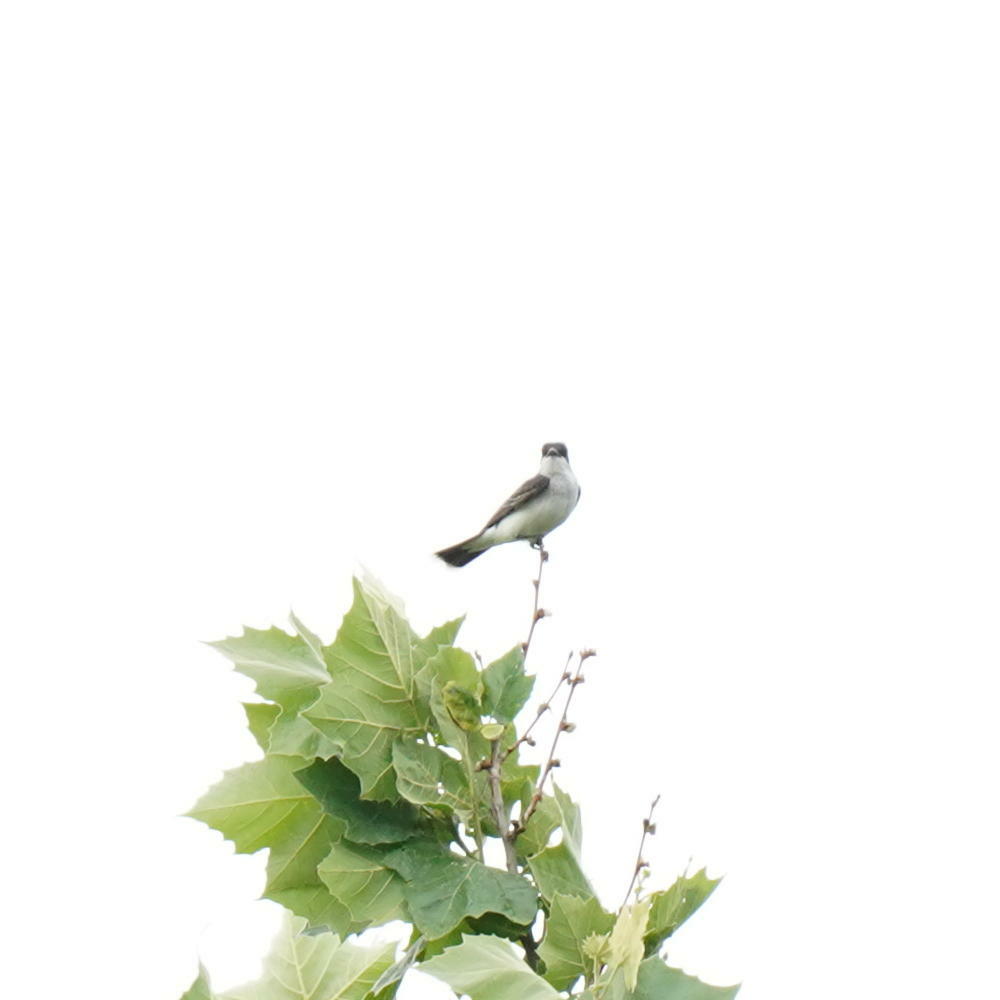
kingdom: Animalia
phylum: Chordata
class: Aves
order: Passeriformes
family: Tyrannidae
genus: Tyrannus
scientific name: Tyrannus tyrannus
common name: Eastern kingbird
